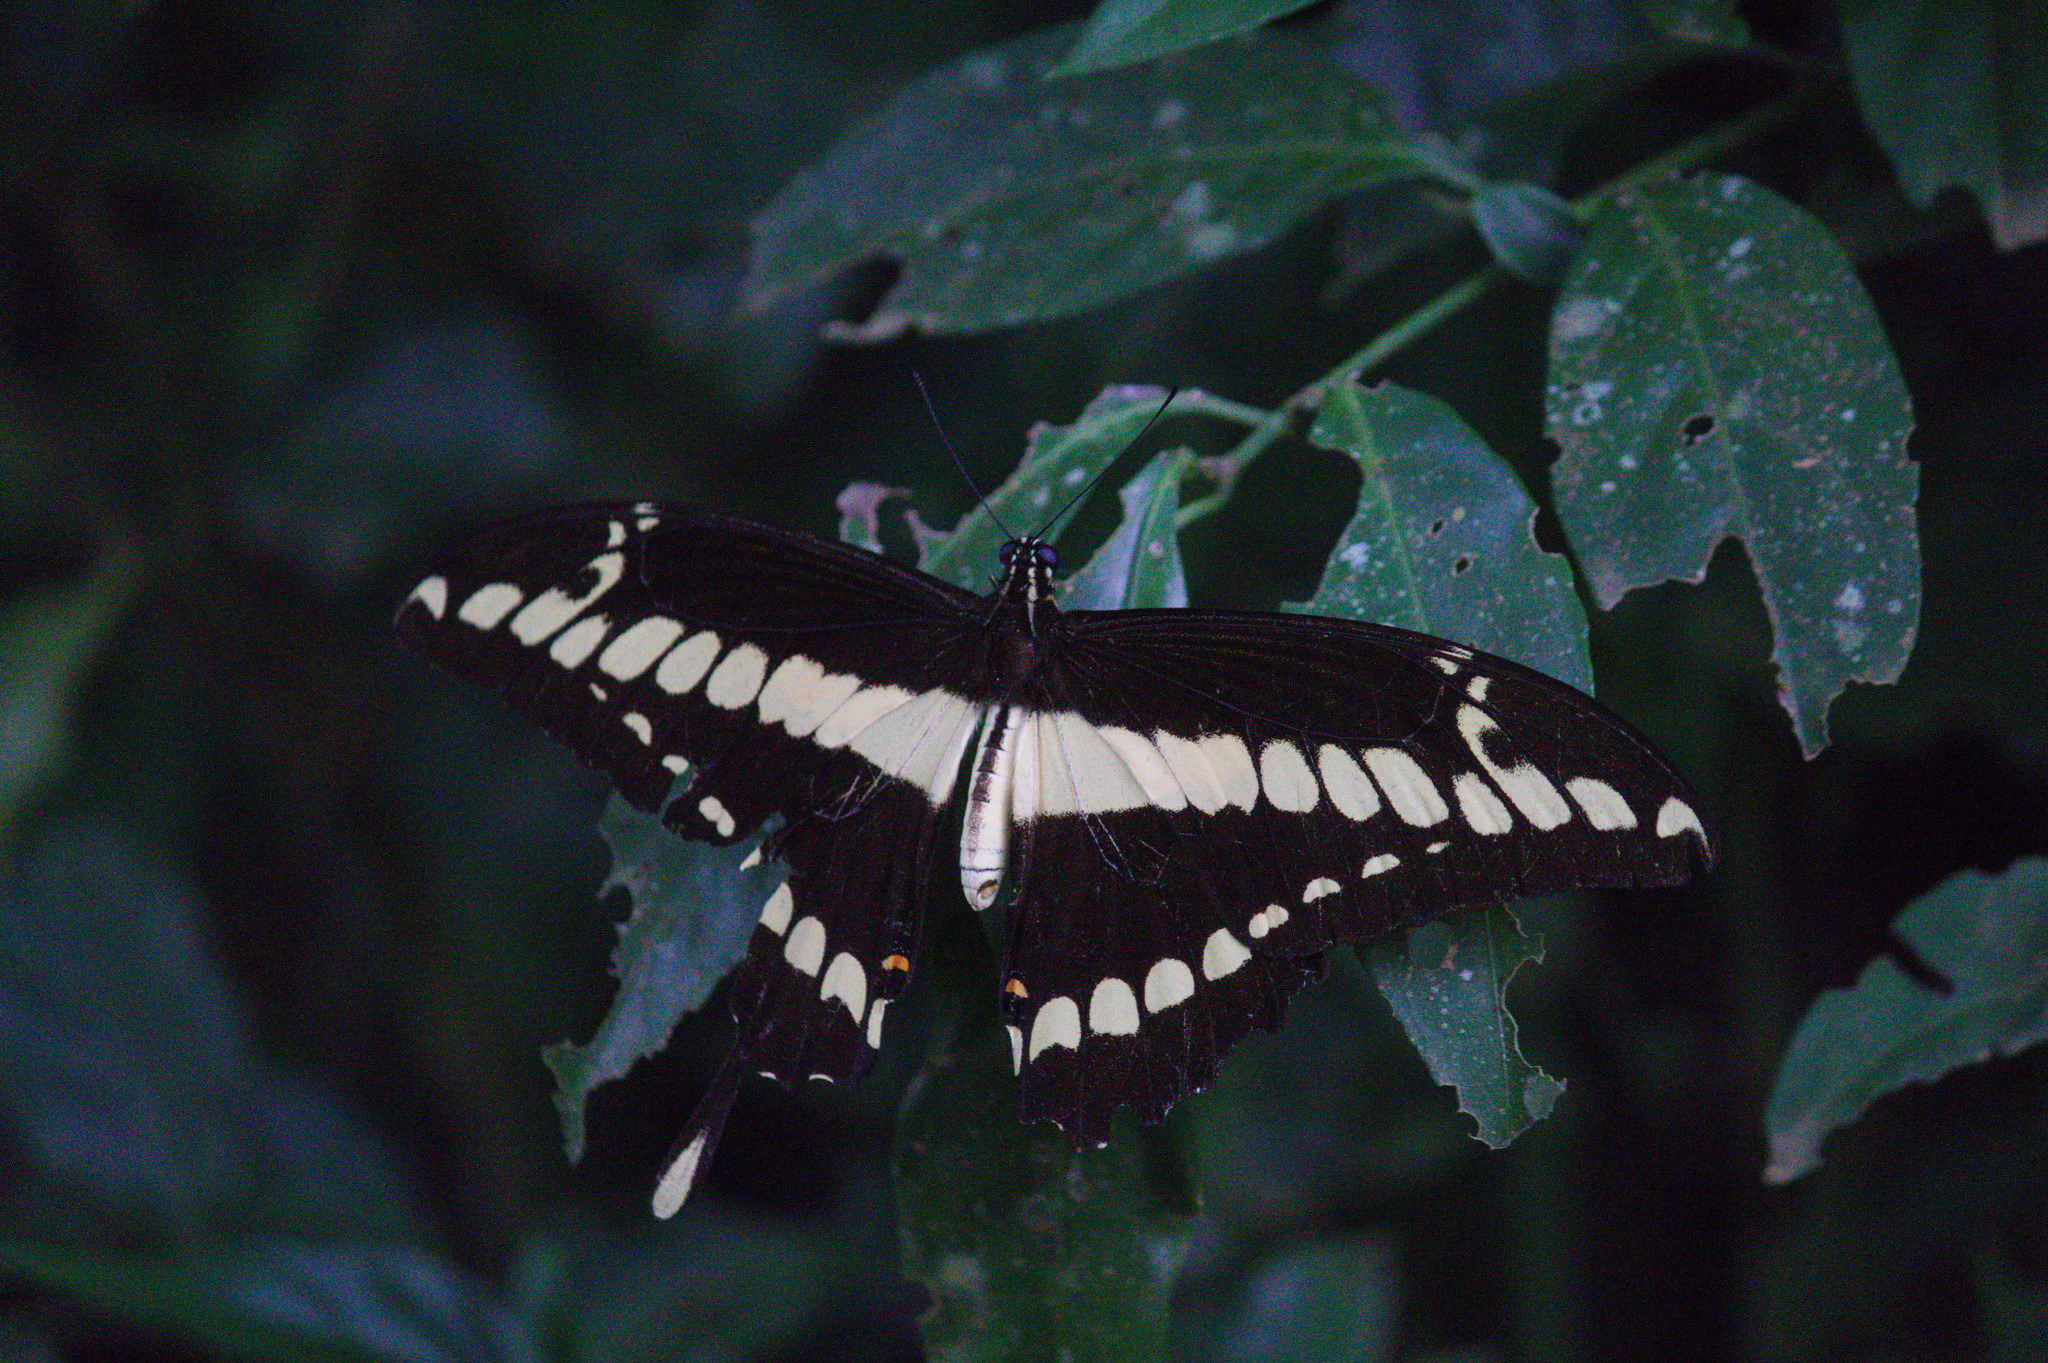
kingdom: Animalia
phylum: Arthropoda
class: Insecta
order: Lepidoptera
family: Papilionidae
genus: Papilio
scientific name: Papilio thoas
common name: King swallowtail
